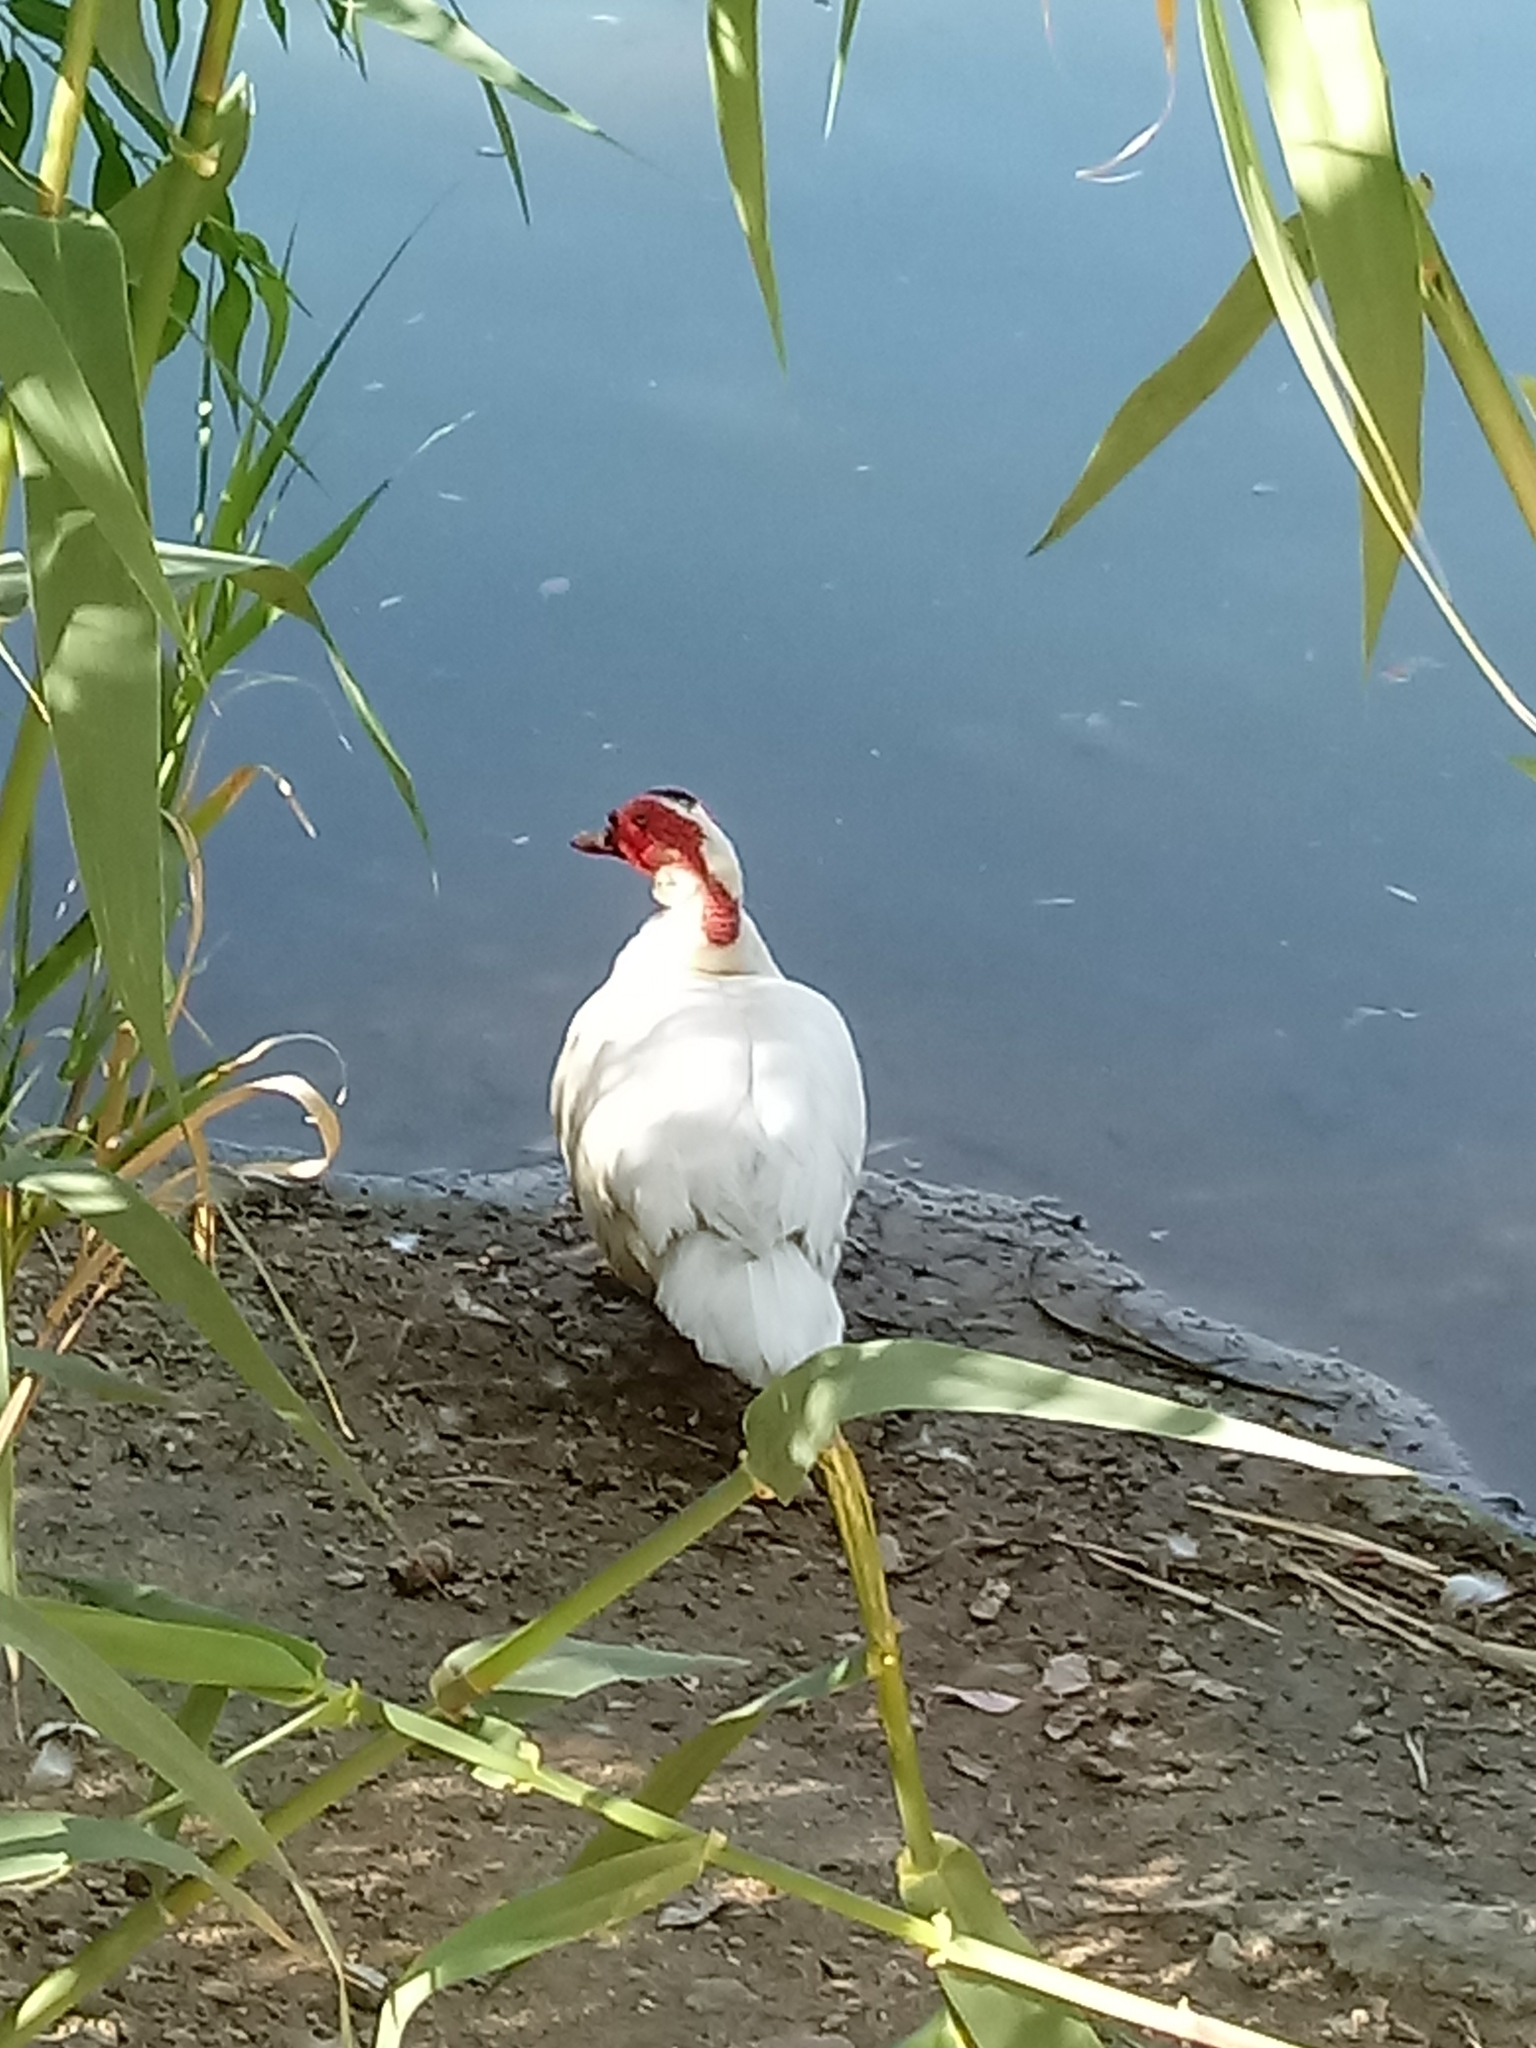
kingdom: Animalia
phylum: Chordata
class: Aves
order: Anseriformes
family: Anatidae
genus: Cairina
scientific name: Cairina moschata
